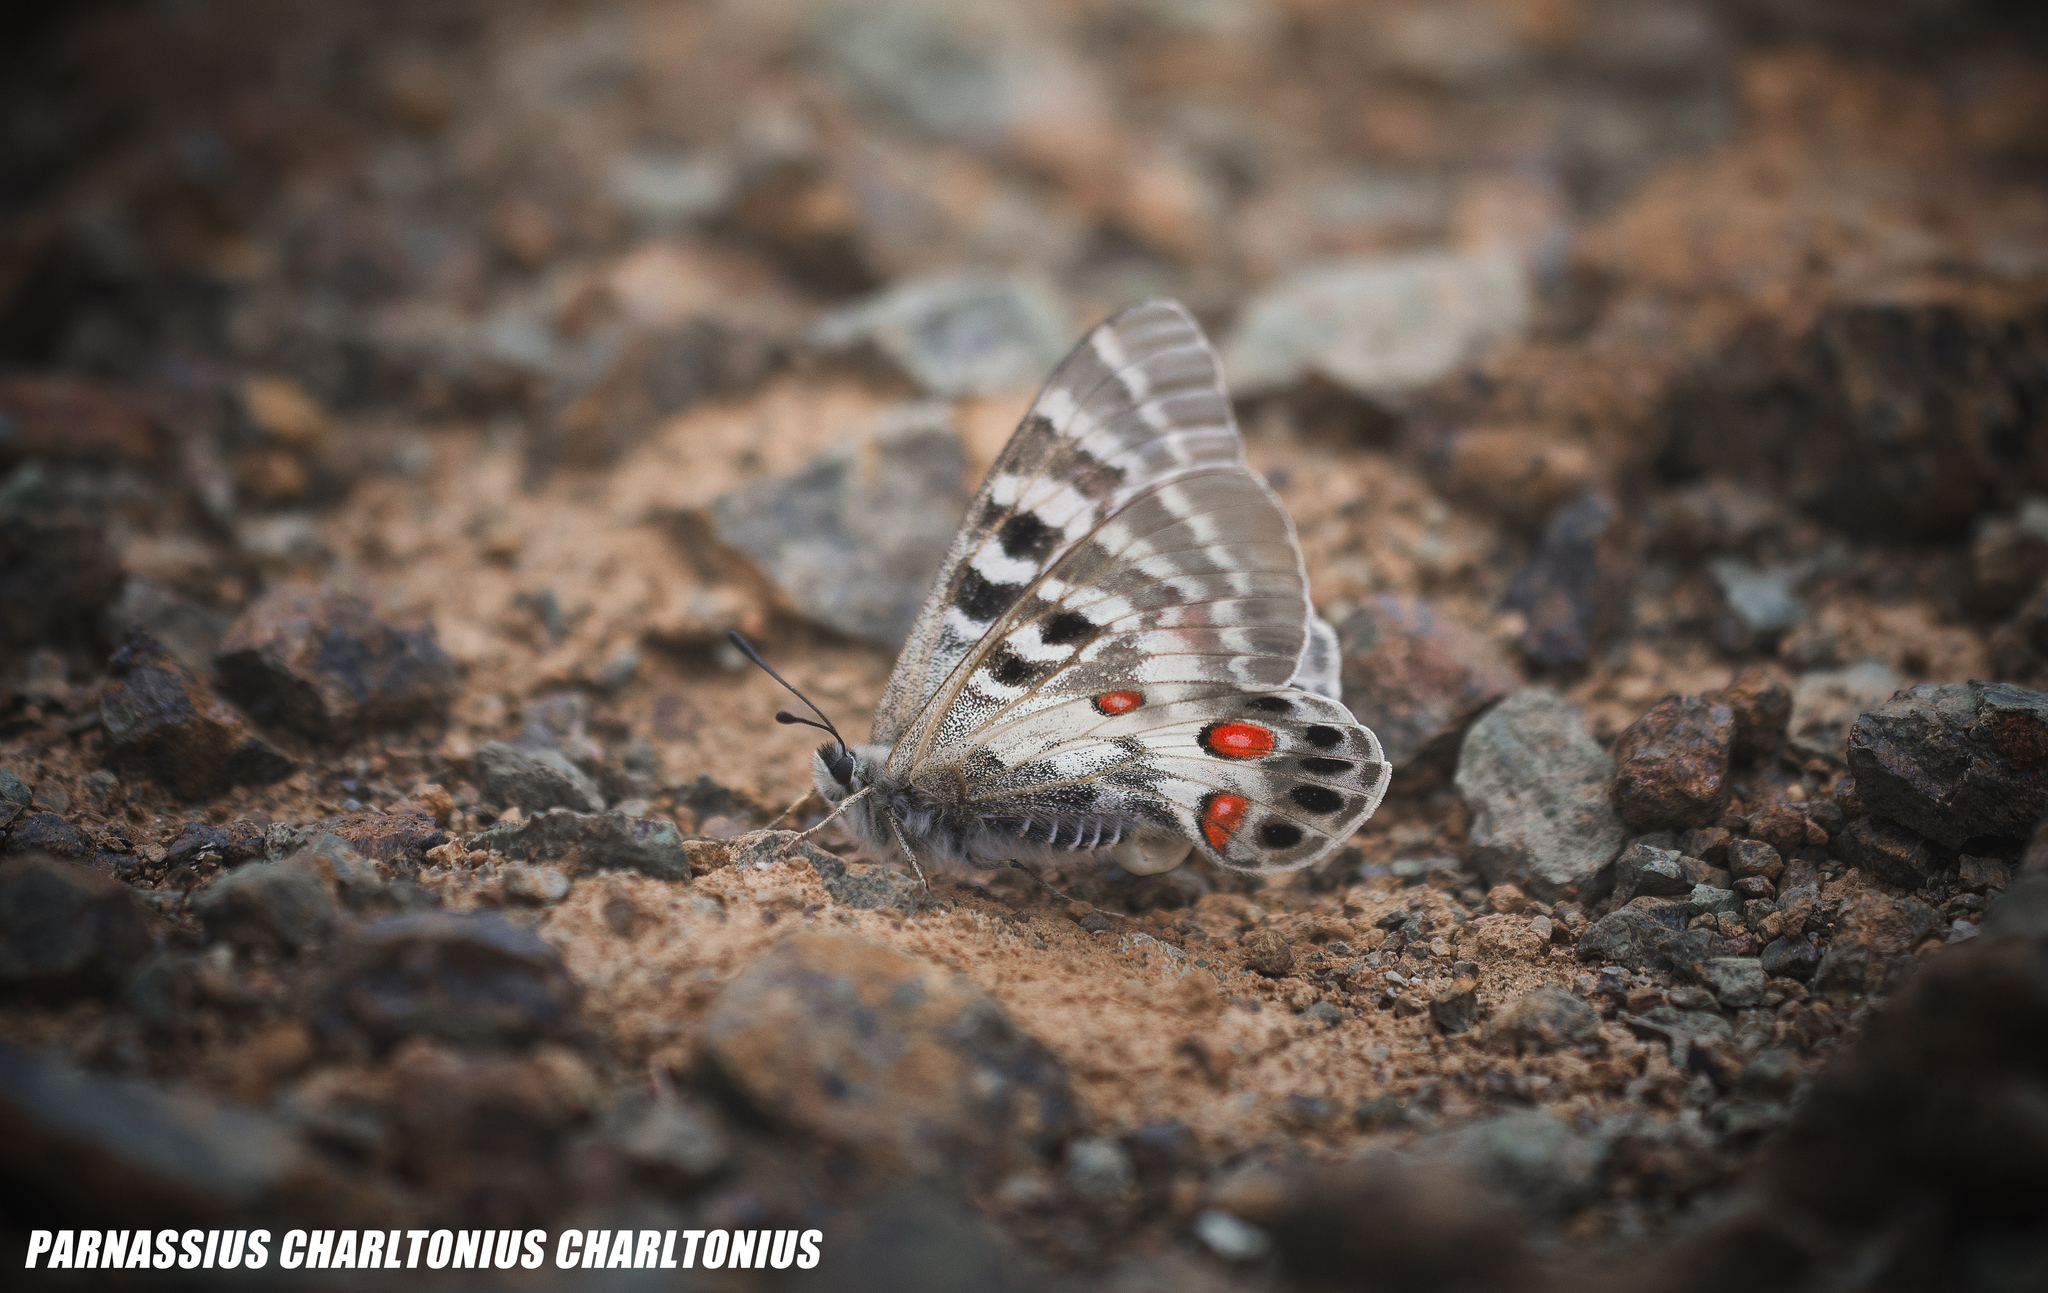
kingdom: Animalia
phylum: Arthropoda
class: Insecta
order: Lepidoptera
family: Papilionidae
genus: Parnassius
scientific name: Parnassius charltonius
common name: Regal apollo
